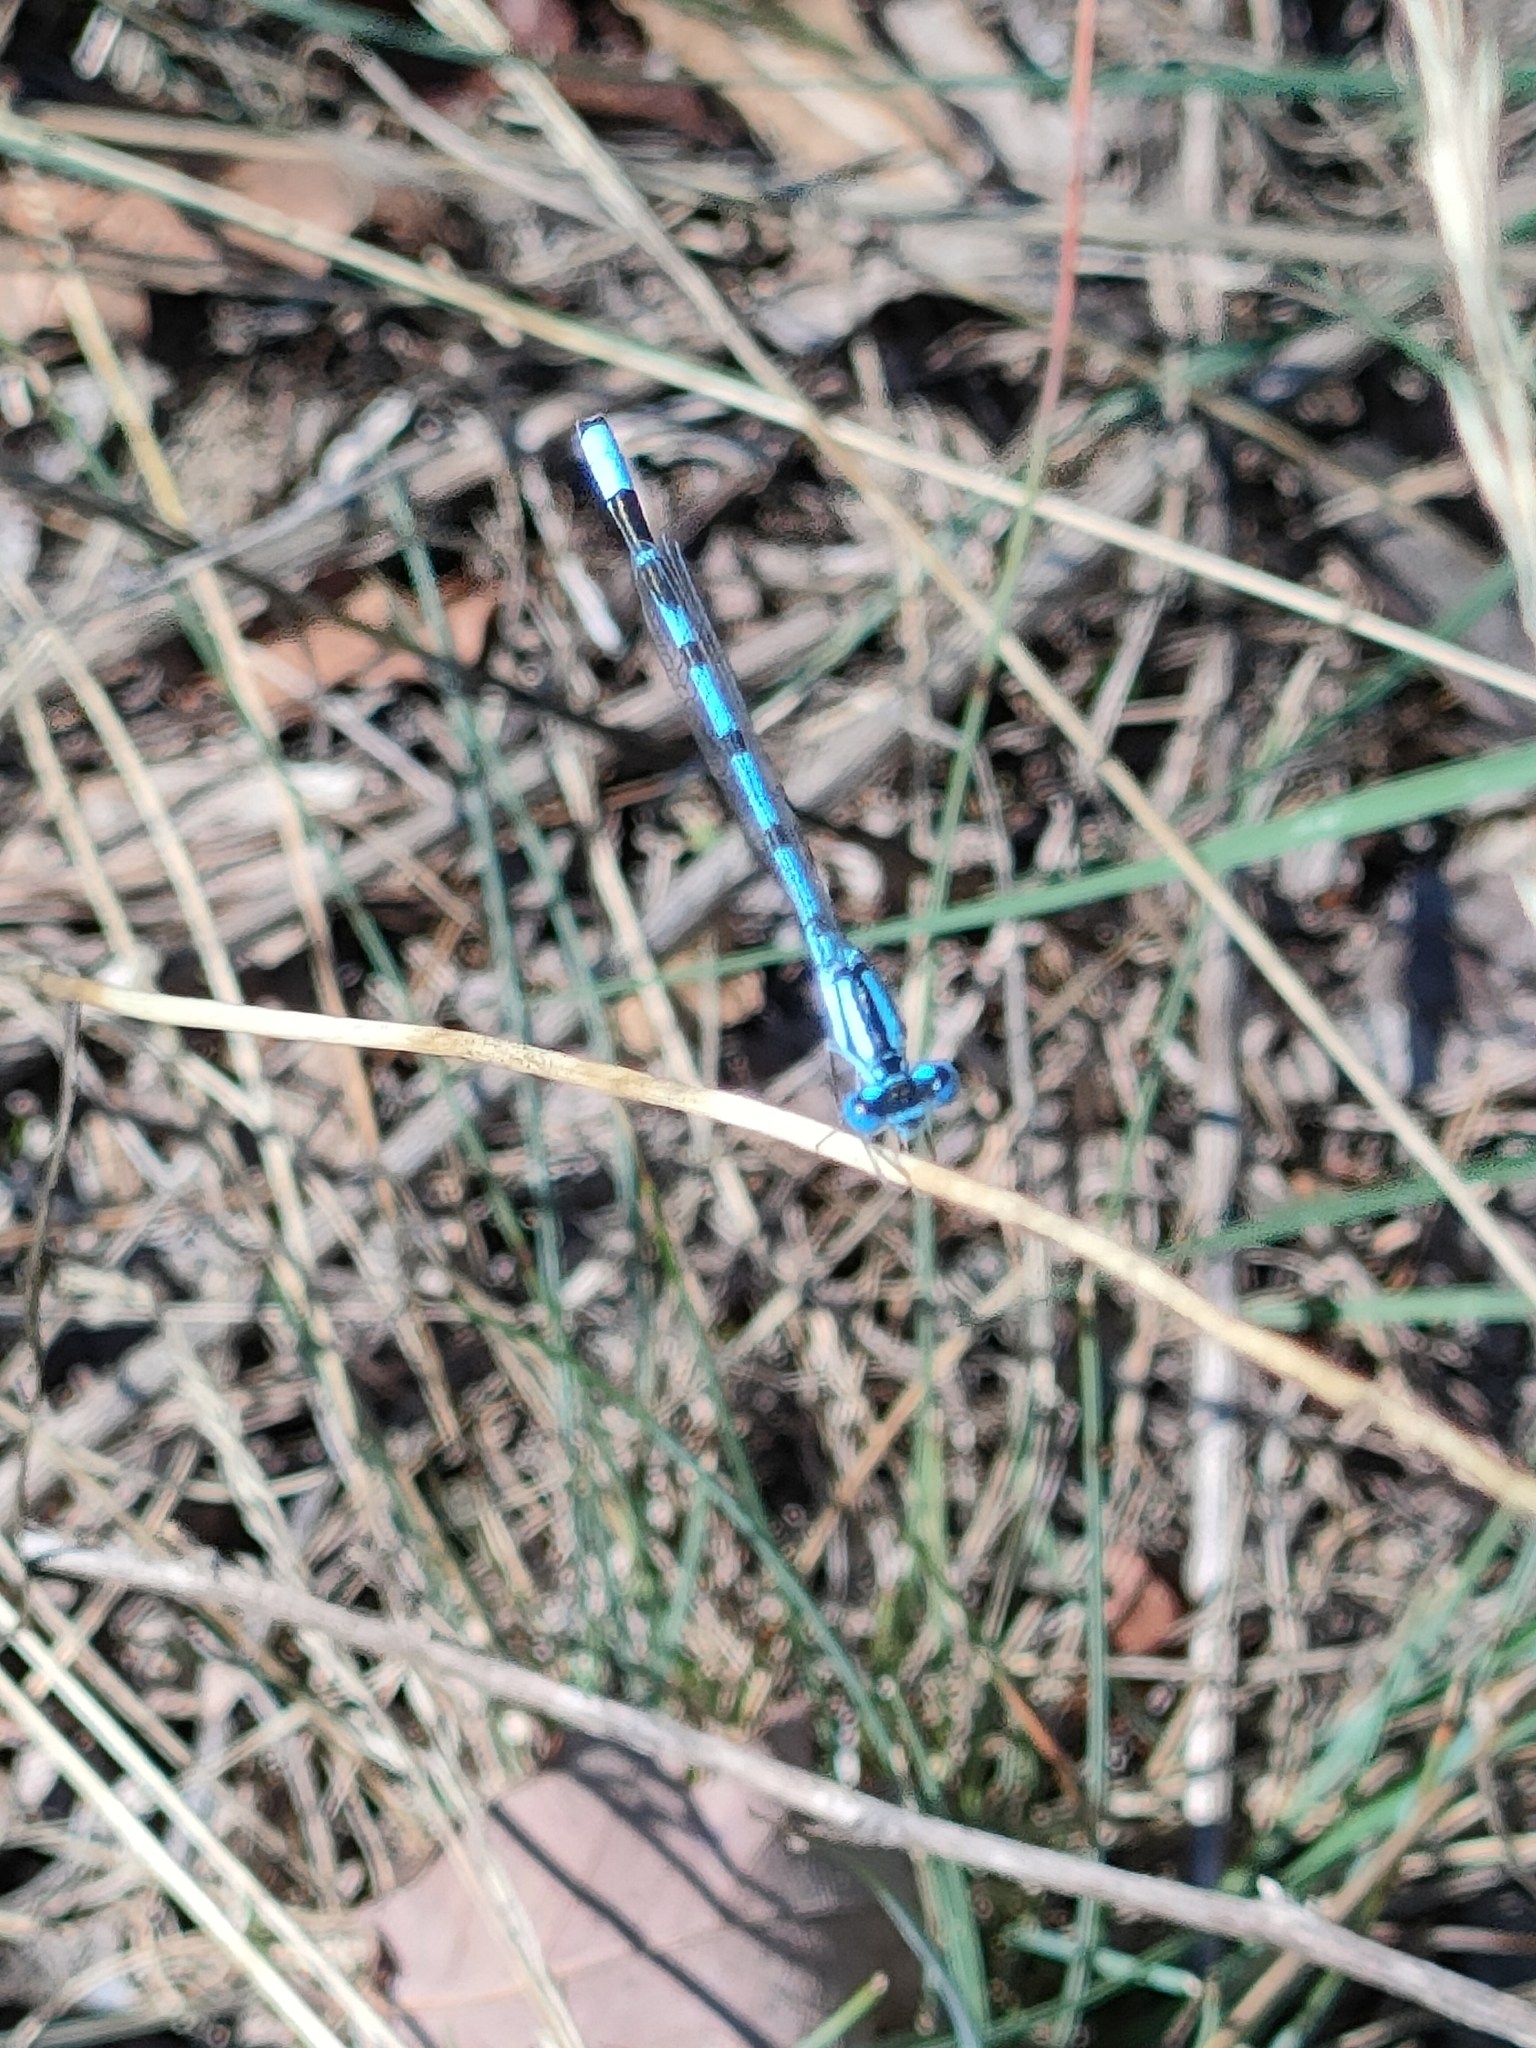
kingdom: Animalia
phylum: Arthropoda
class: Insecta
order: Odonata
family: Coenagrionidae
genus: Enallagma
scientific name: Enallagma cyathigerum
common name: Common blue damselfly
